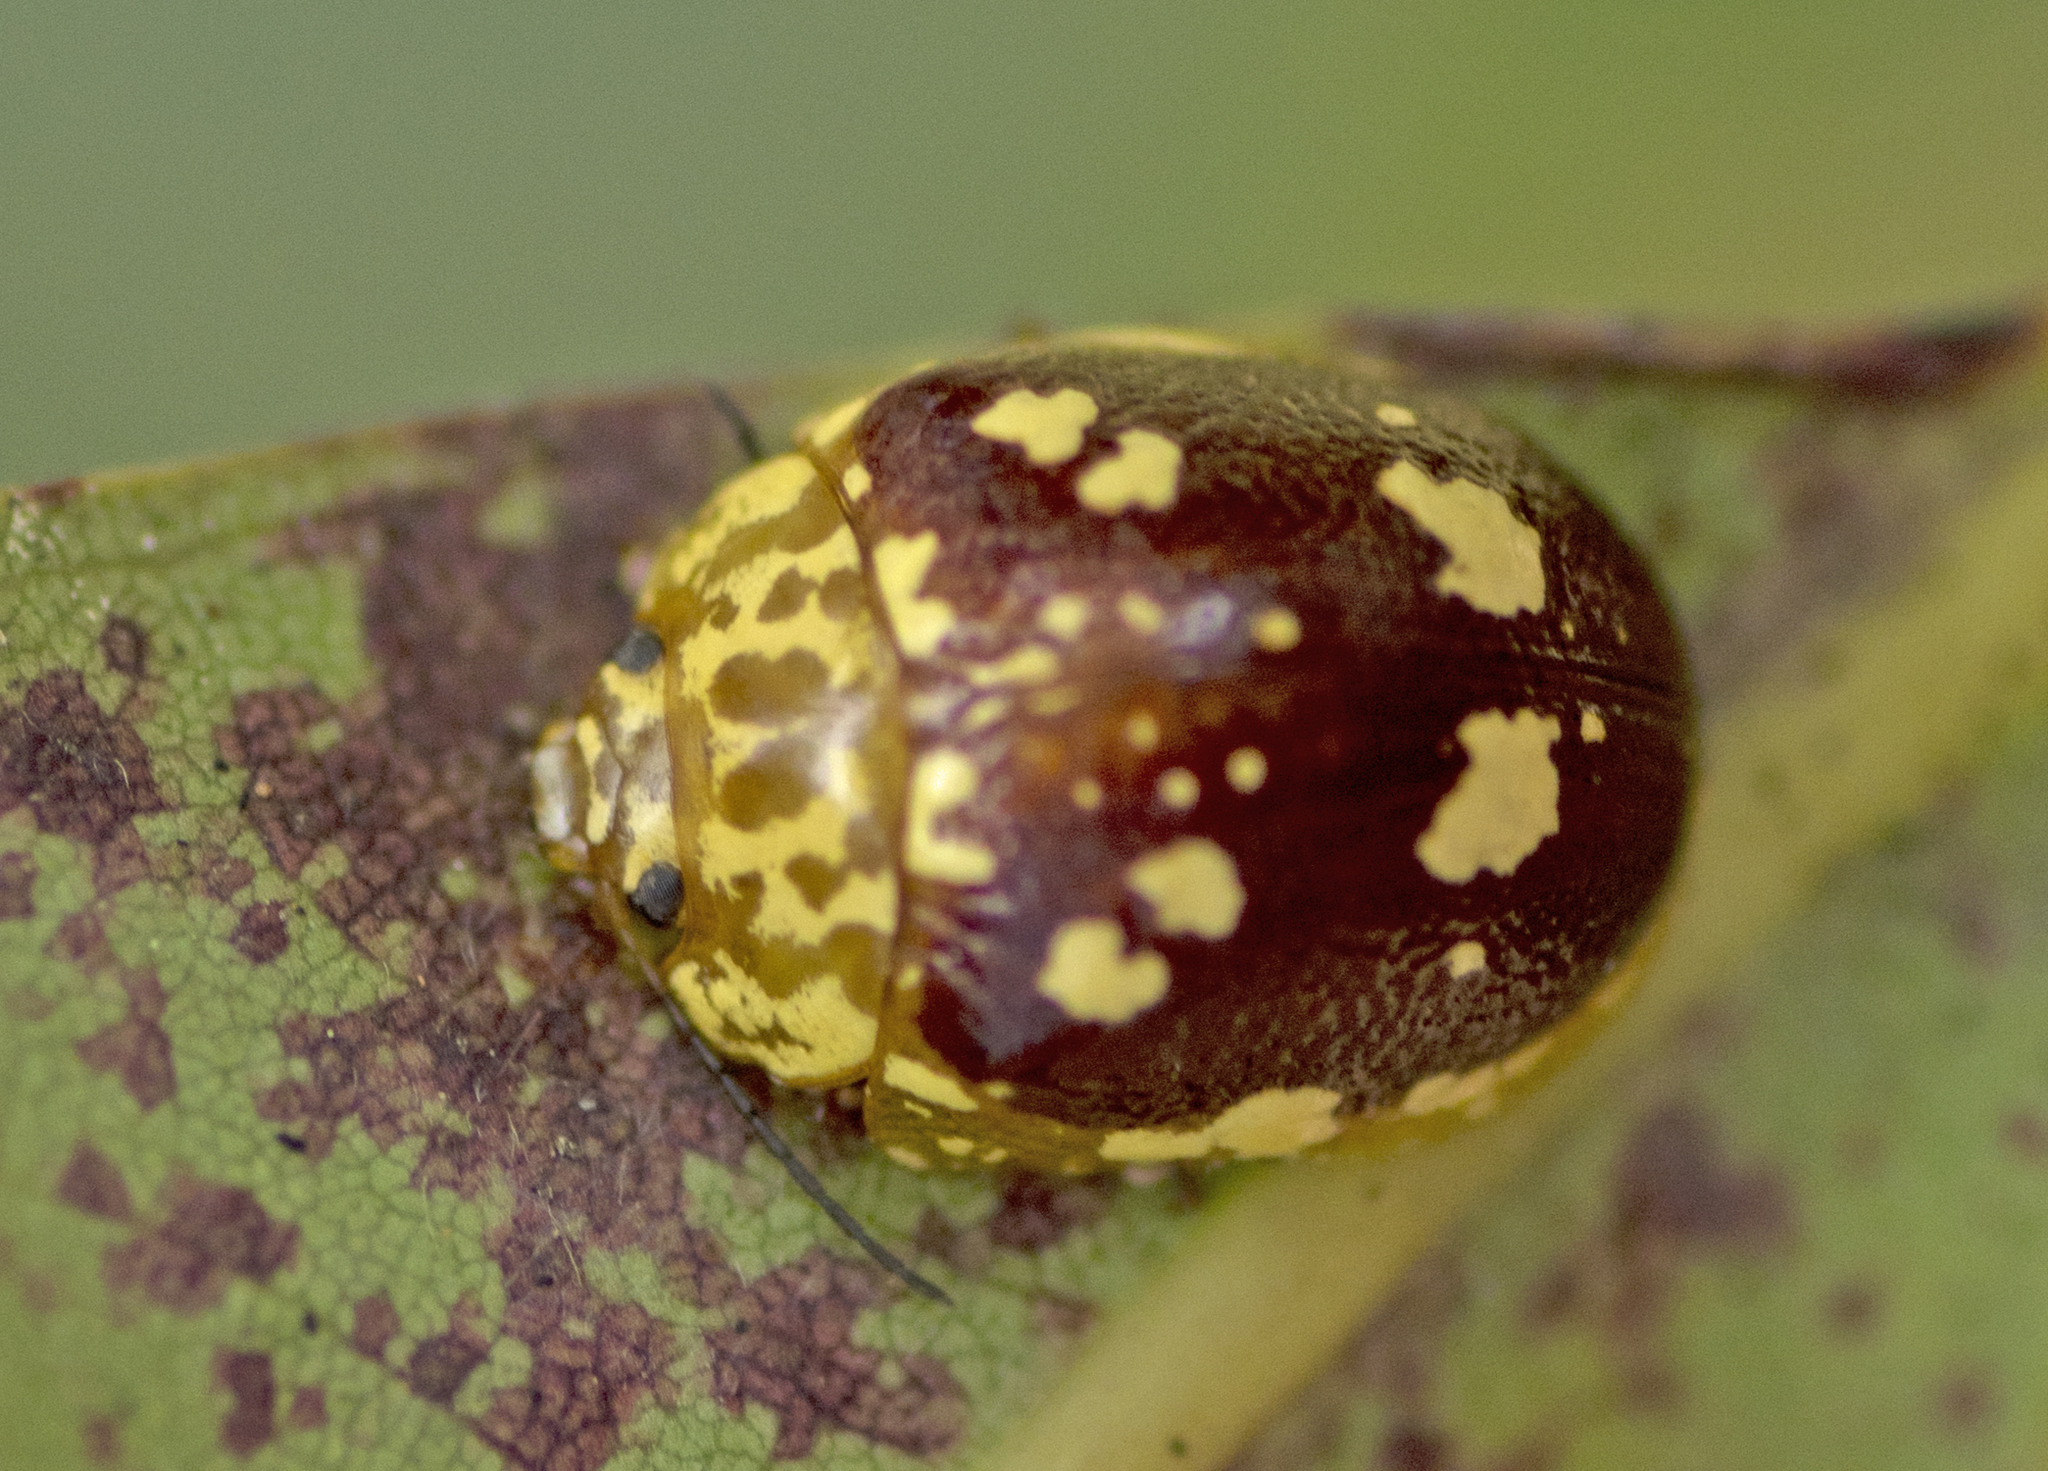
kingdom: Animalia
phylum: Arthropoda
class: Insecta
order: Coleoptera
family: Chrysomelidae
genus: Paropsis
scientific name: Paropsis maculata
